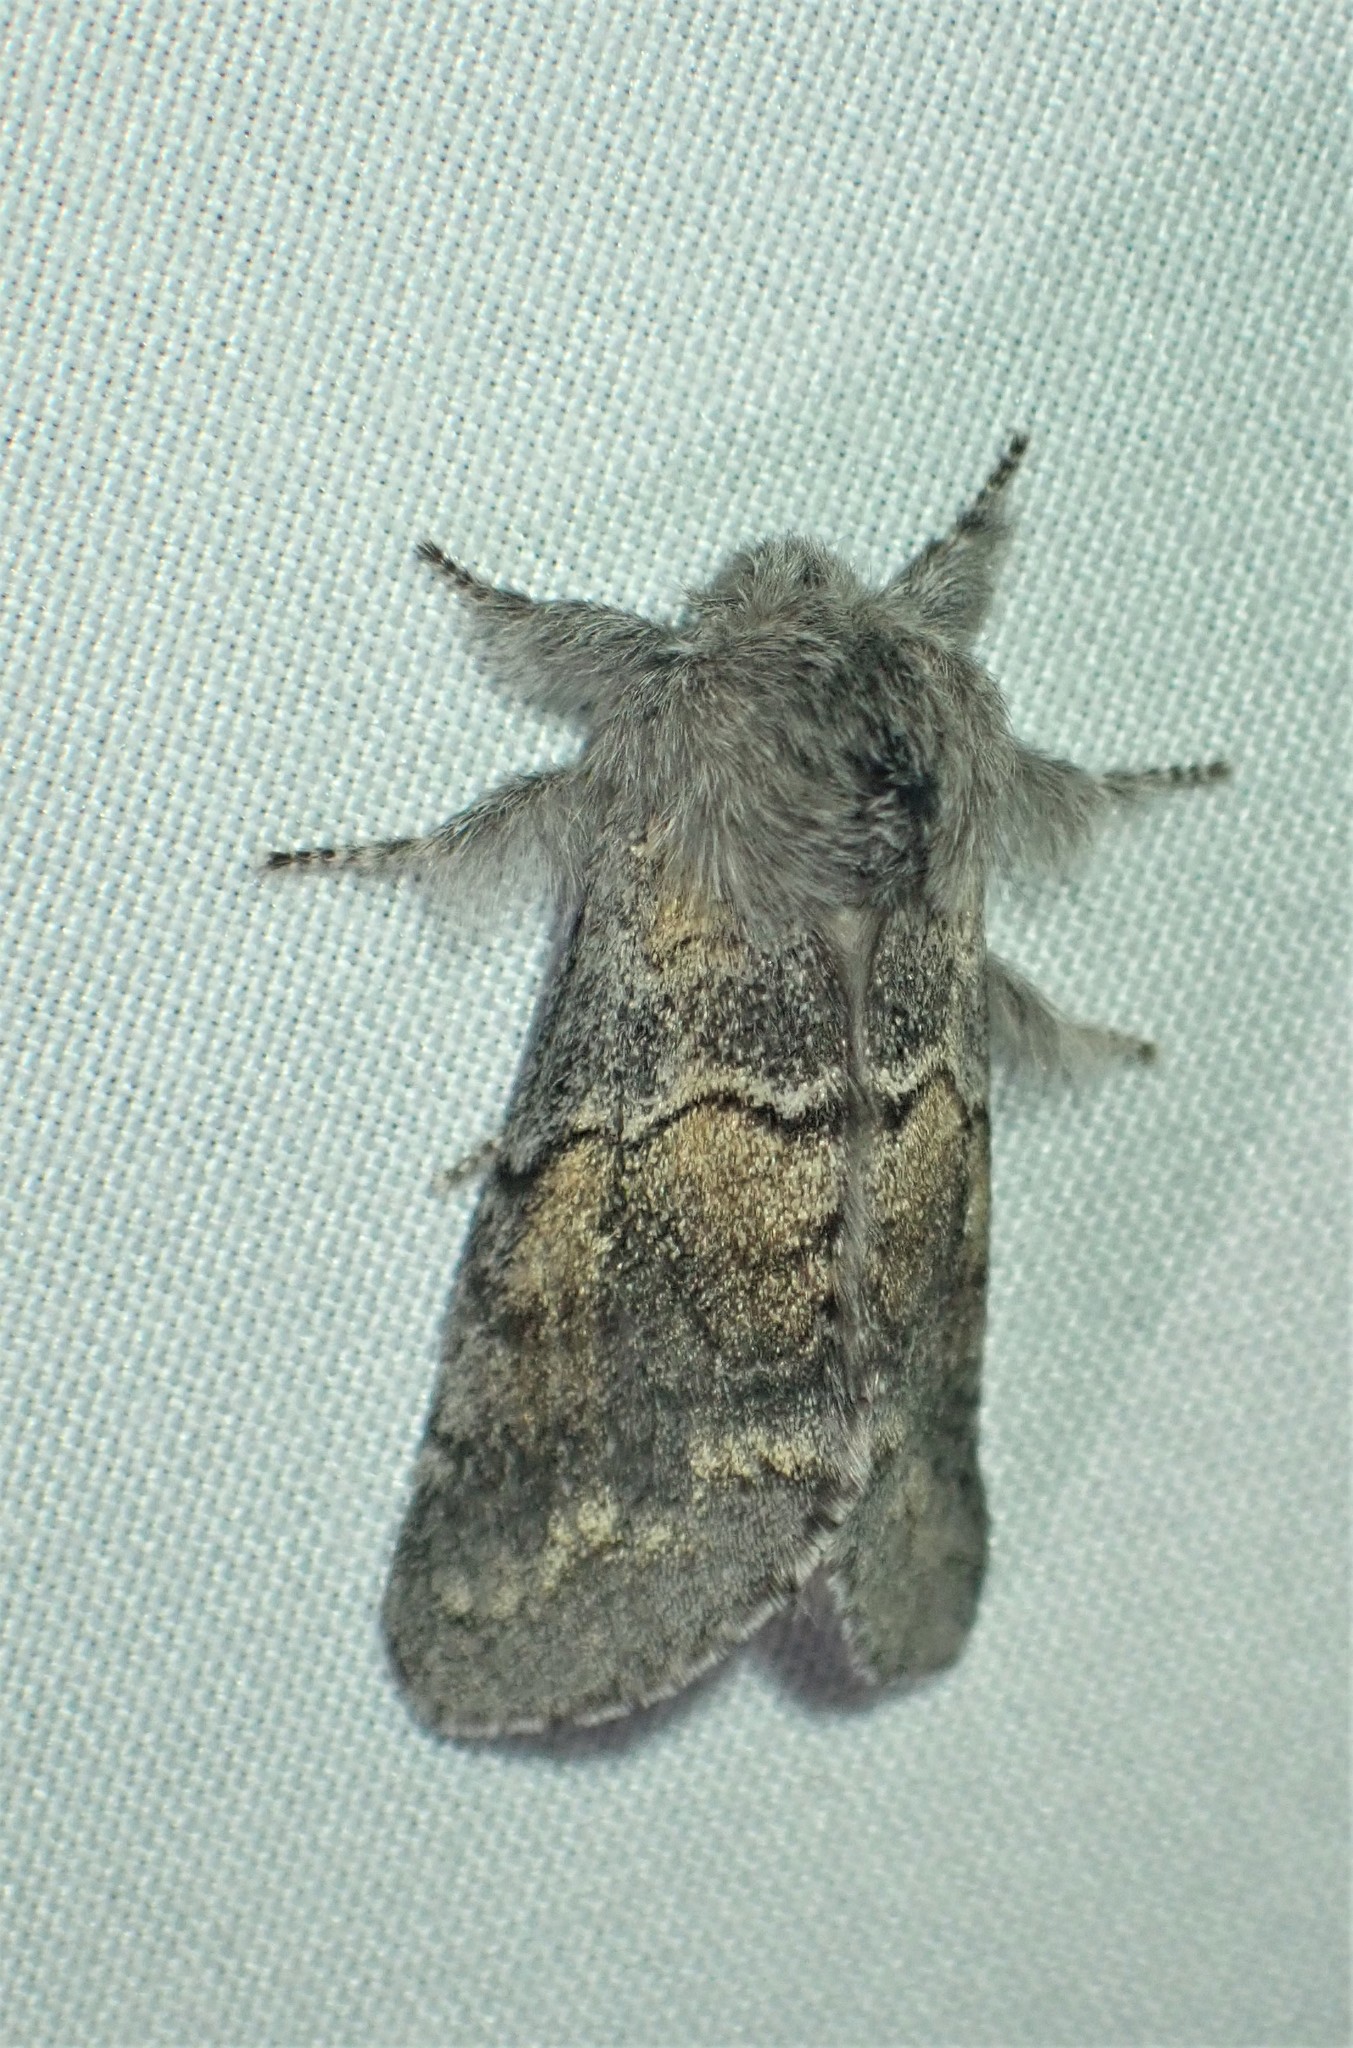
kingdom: Animalia
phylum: Arthropoda
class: Insecta
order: Lepidoptera
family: Notodontidae
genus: Gluphisia
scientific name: Gluphisia lintneri
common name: Lintner's gluphisia moth
